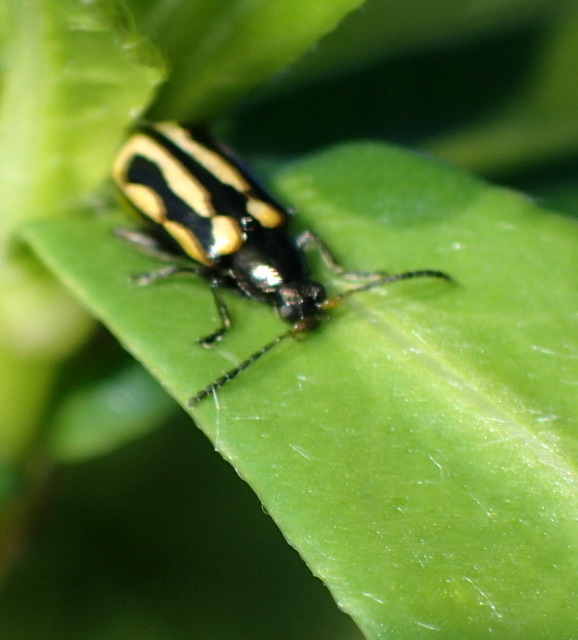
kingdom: Animalia
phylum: Arthropoda
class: Insecta
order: Coleoptera
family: Chrysomelidae
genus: Agasicles
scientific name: Agasicles hygrophila
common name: Alligatorweed flea beetle
